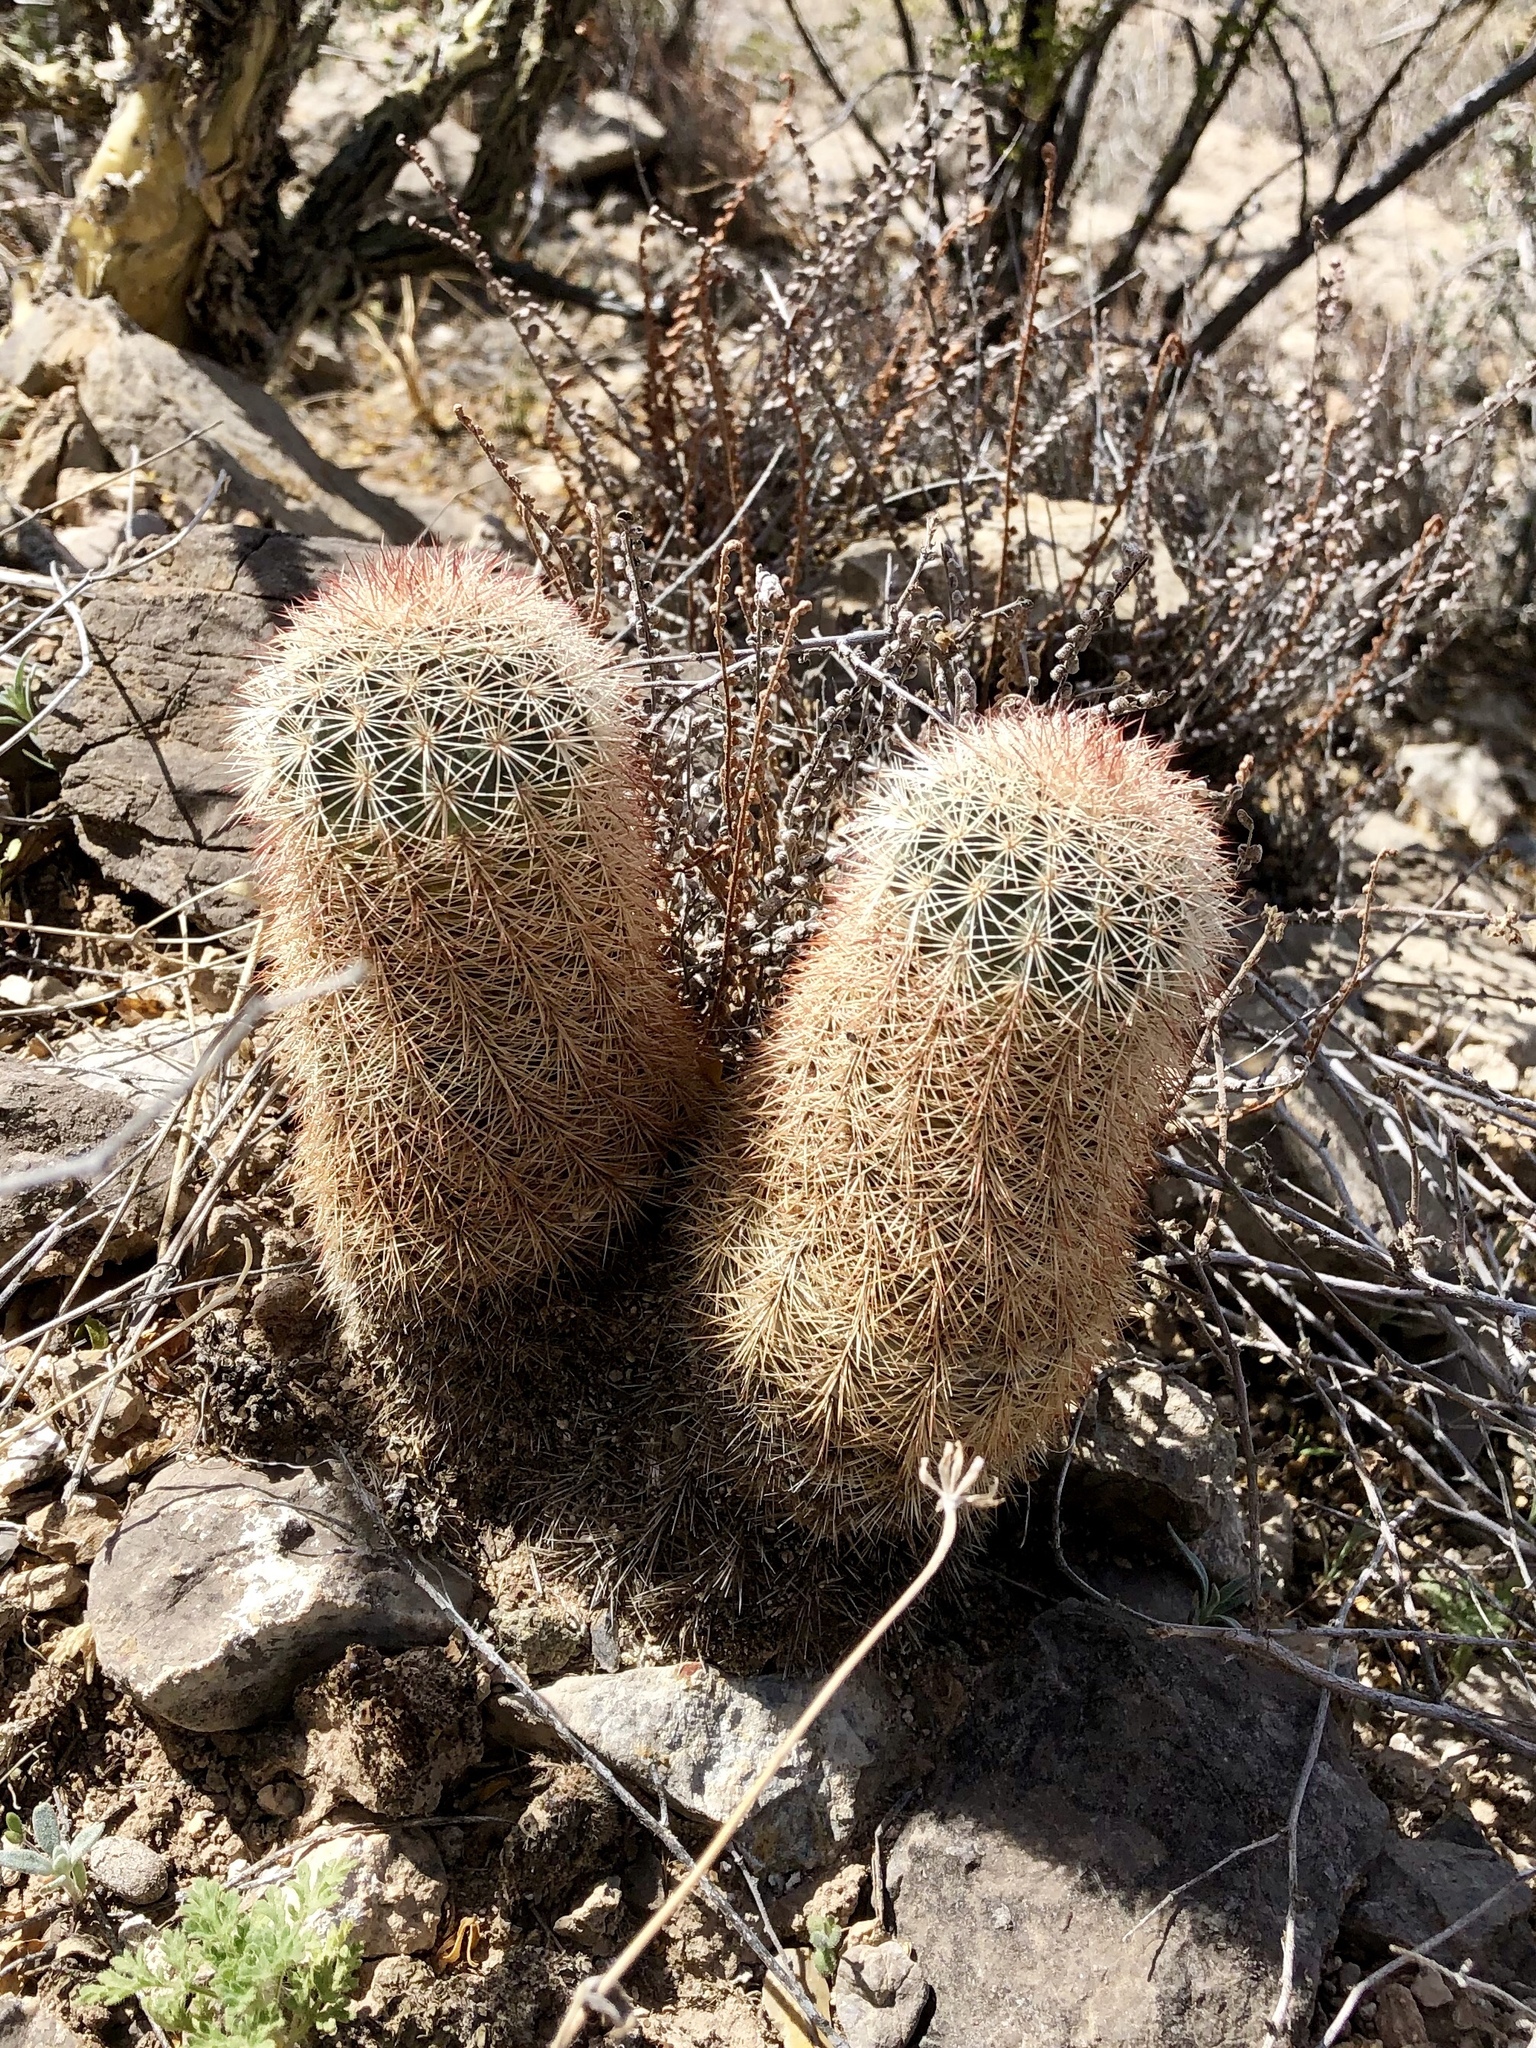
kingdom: Plantae
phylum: Tracheophyta
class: Magnoliopsida
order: Caryophyllales
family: Cactaceae
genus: Echinocereus
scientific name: Echinocereus dasyacanthus
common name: Spiny hedgehog cactus
